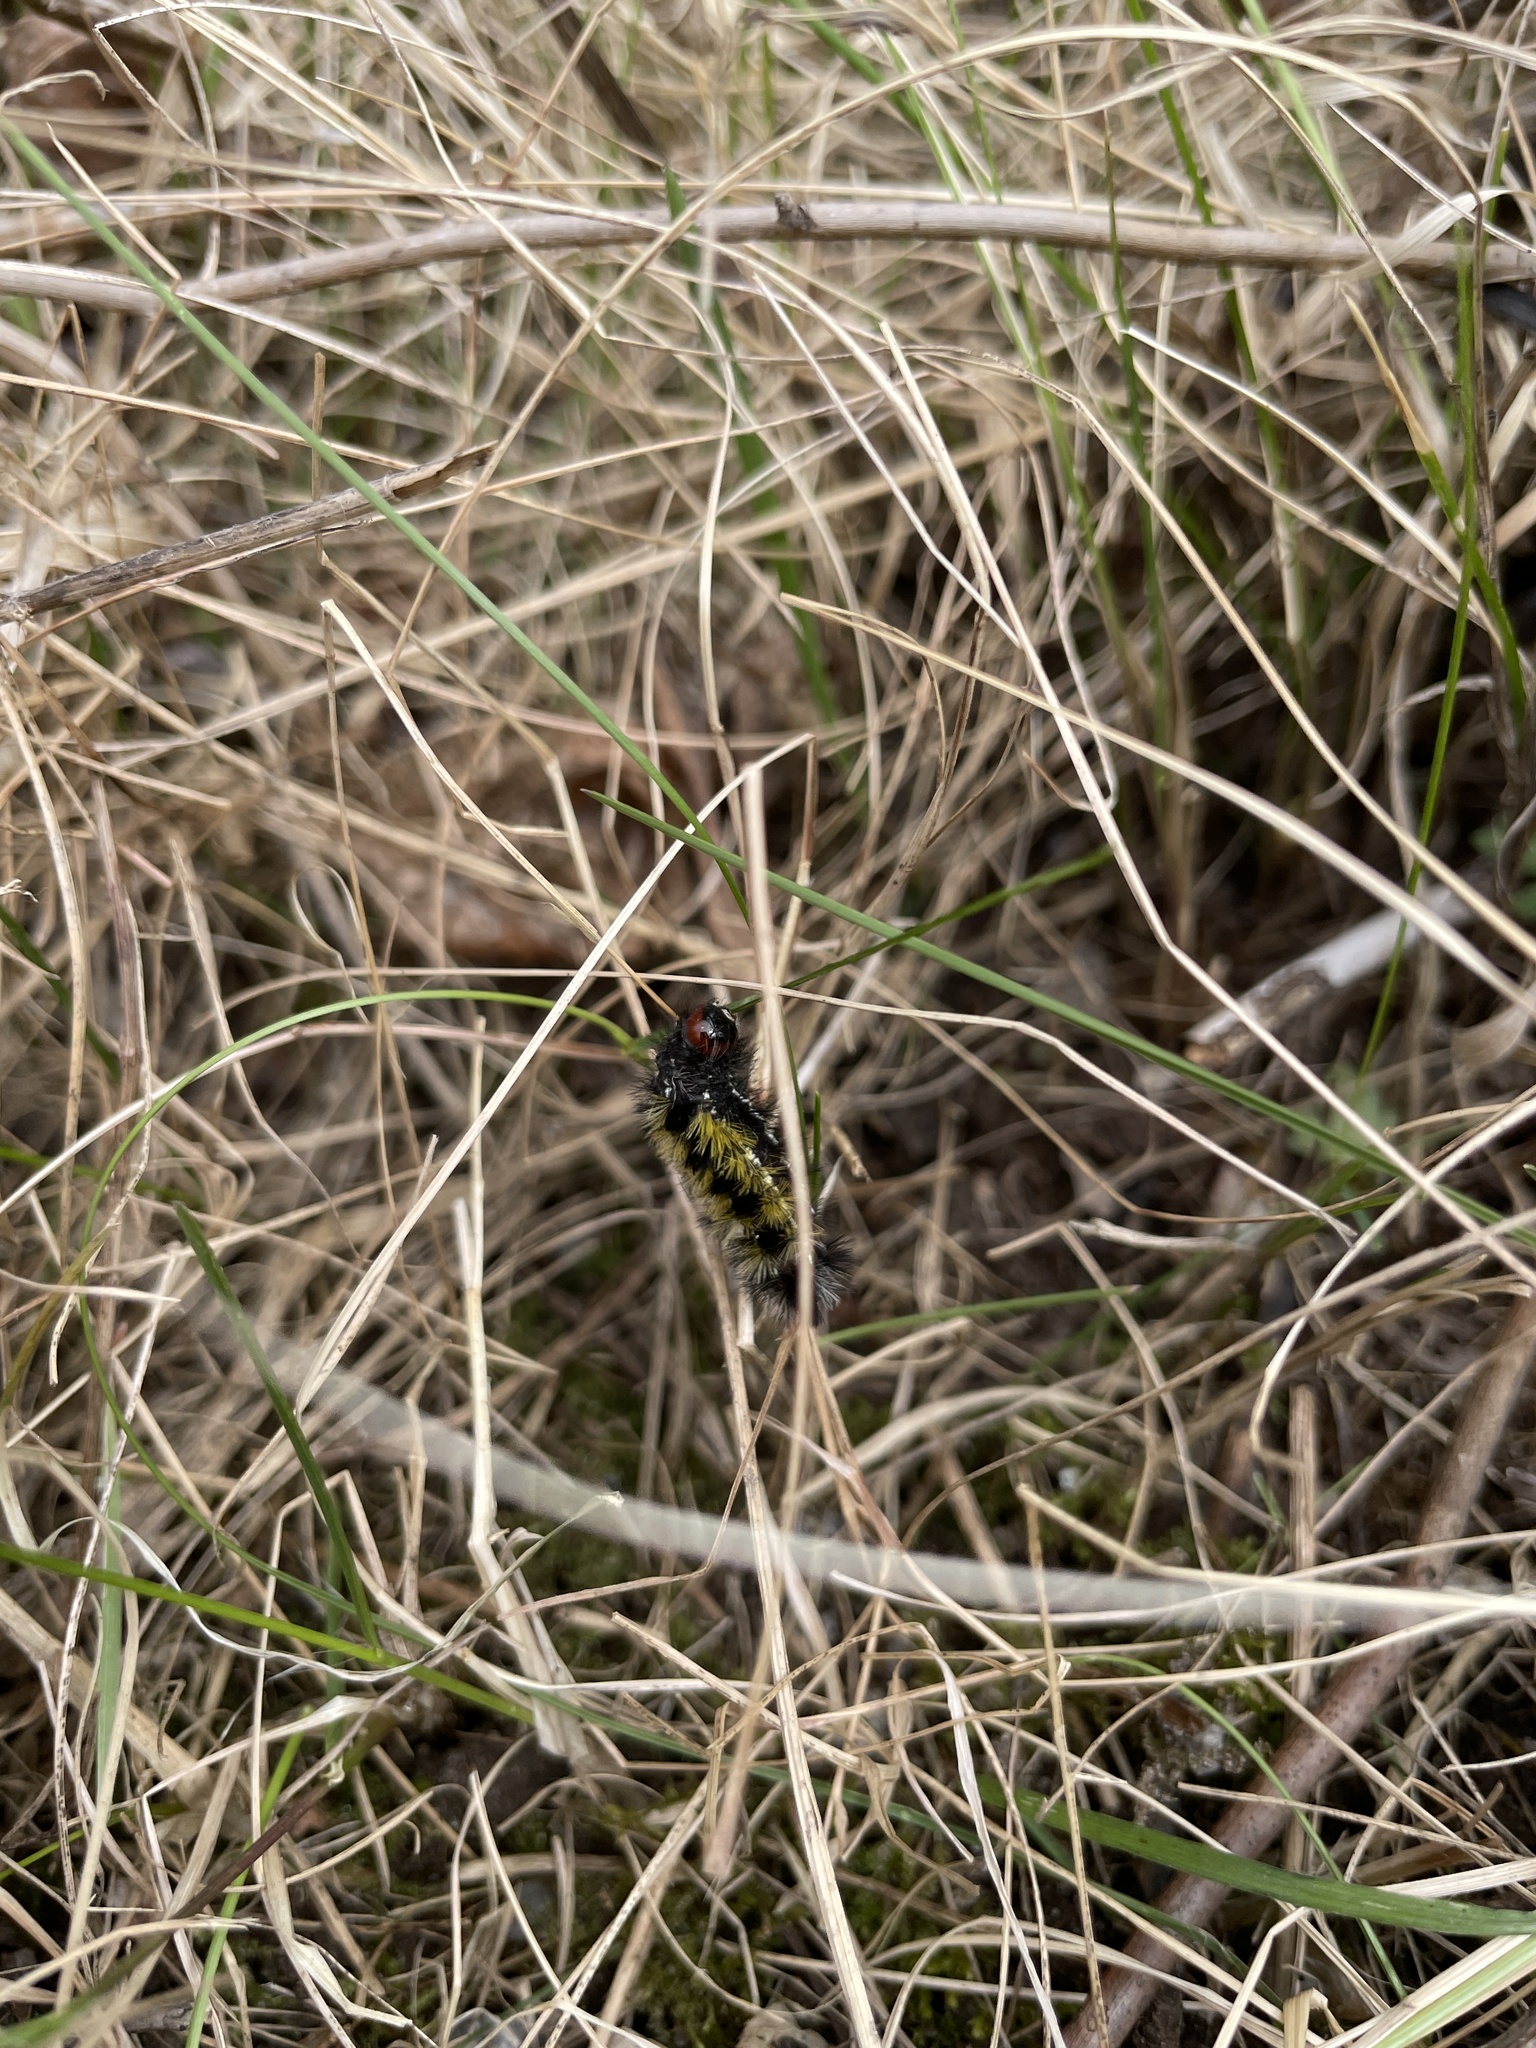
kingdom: Animalia
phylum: Arthropoda
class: Insecta
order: Lepidoptera
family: Erebidae
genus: Ctenucha
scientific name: Ctenucha virginica
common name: Virginia ctenucha moth
